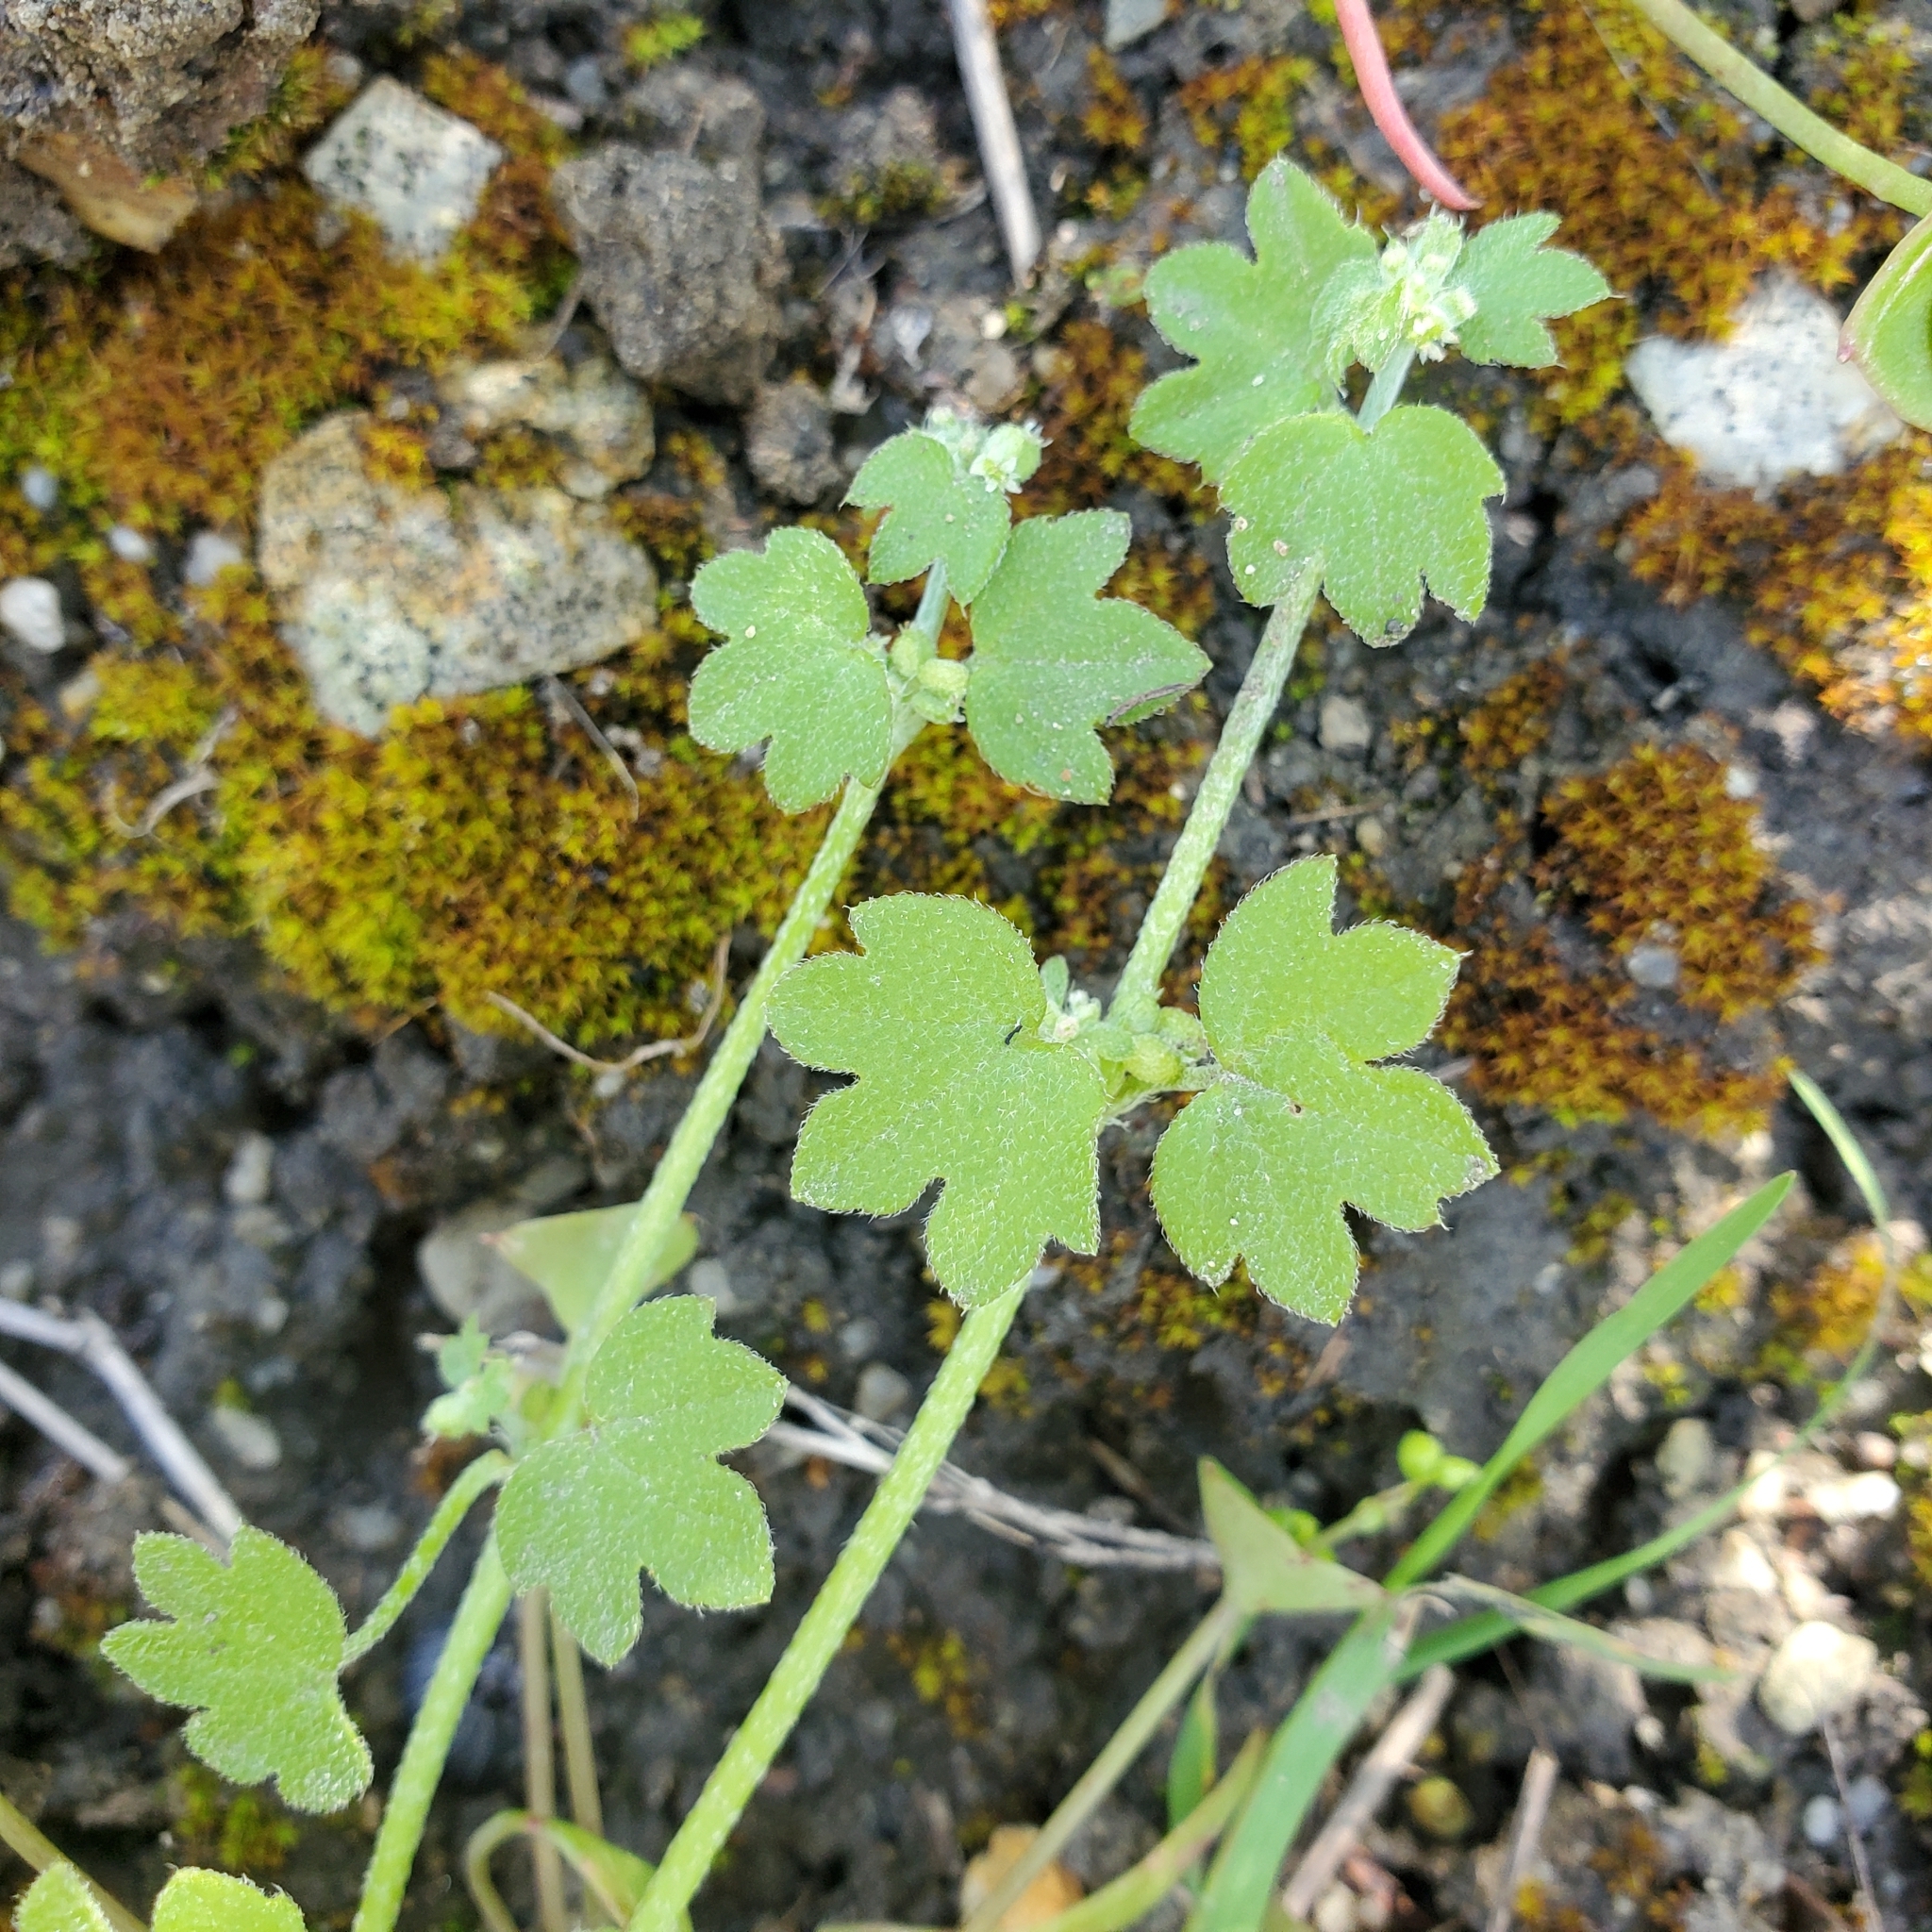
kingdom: Plantae
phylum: Tracheophyta
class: Magnoliopsida
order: Apiales
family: Apiaceae
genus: Bowlesia
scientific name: Bowlesia incana
